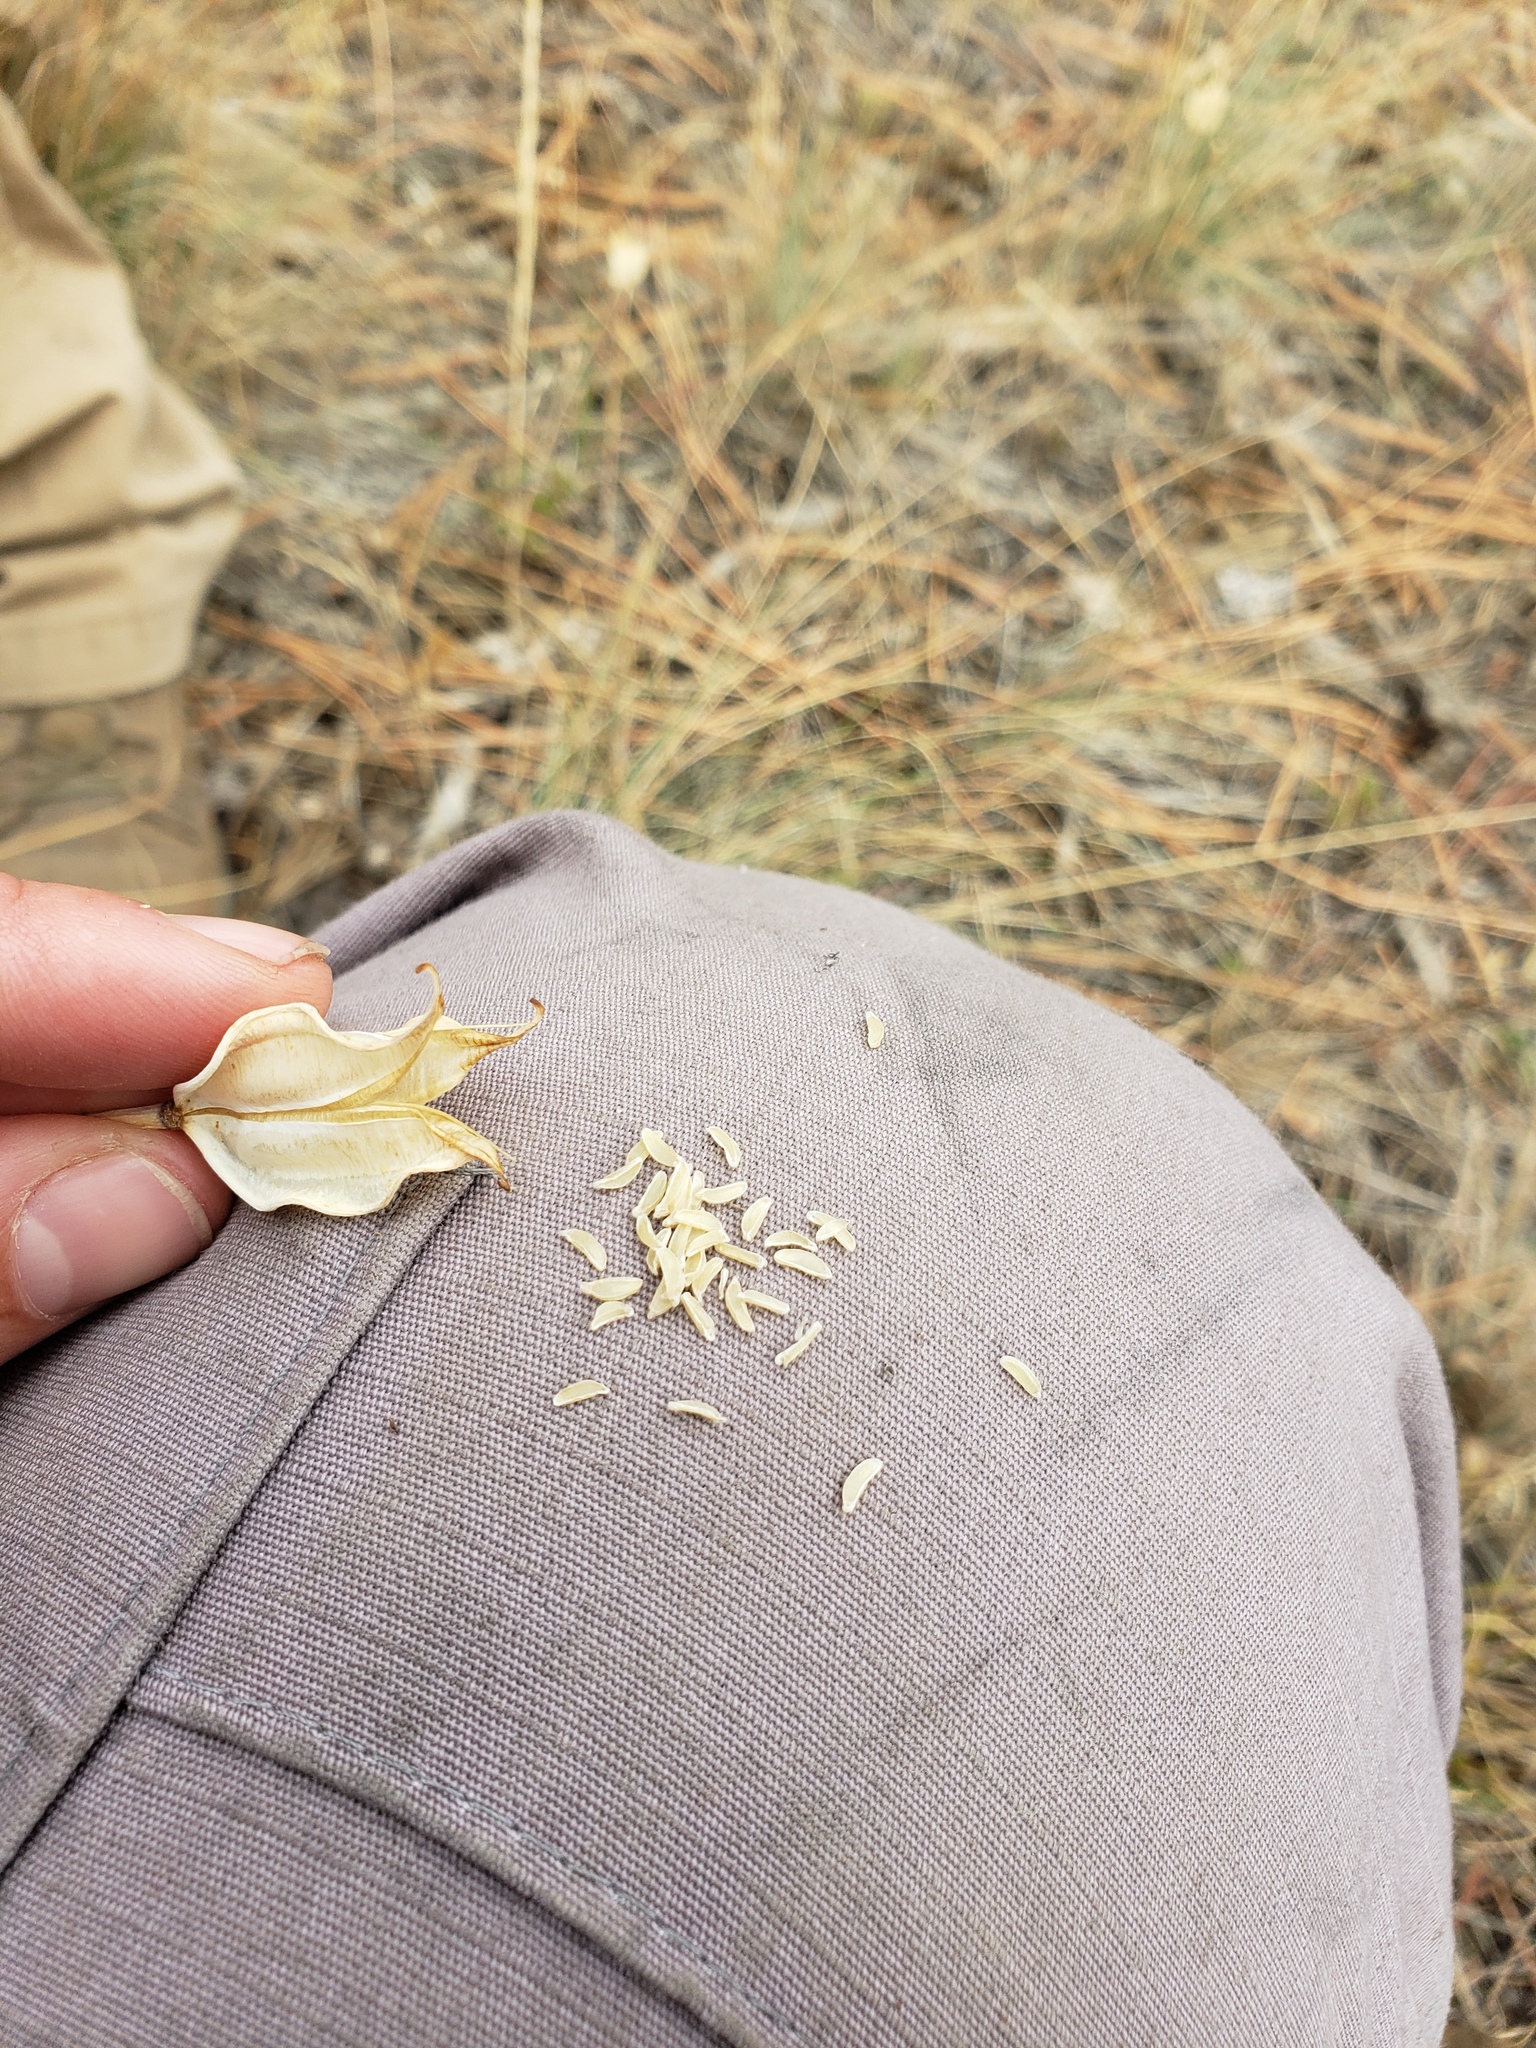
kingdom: Plantae
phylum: Tracheophyta
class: Liliopsida
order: Liliales
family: Liliaceae
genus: Calochortus
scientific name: Calochortus nitidus
